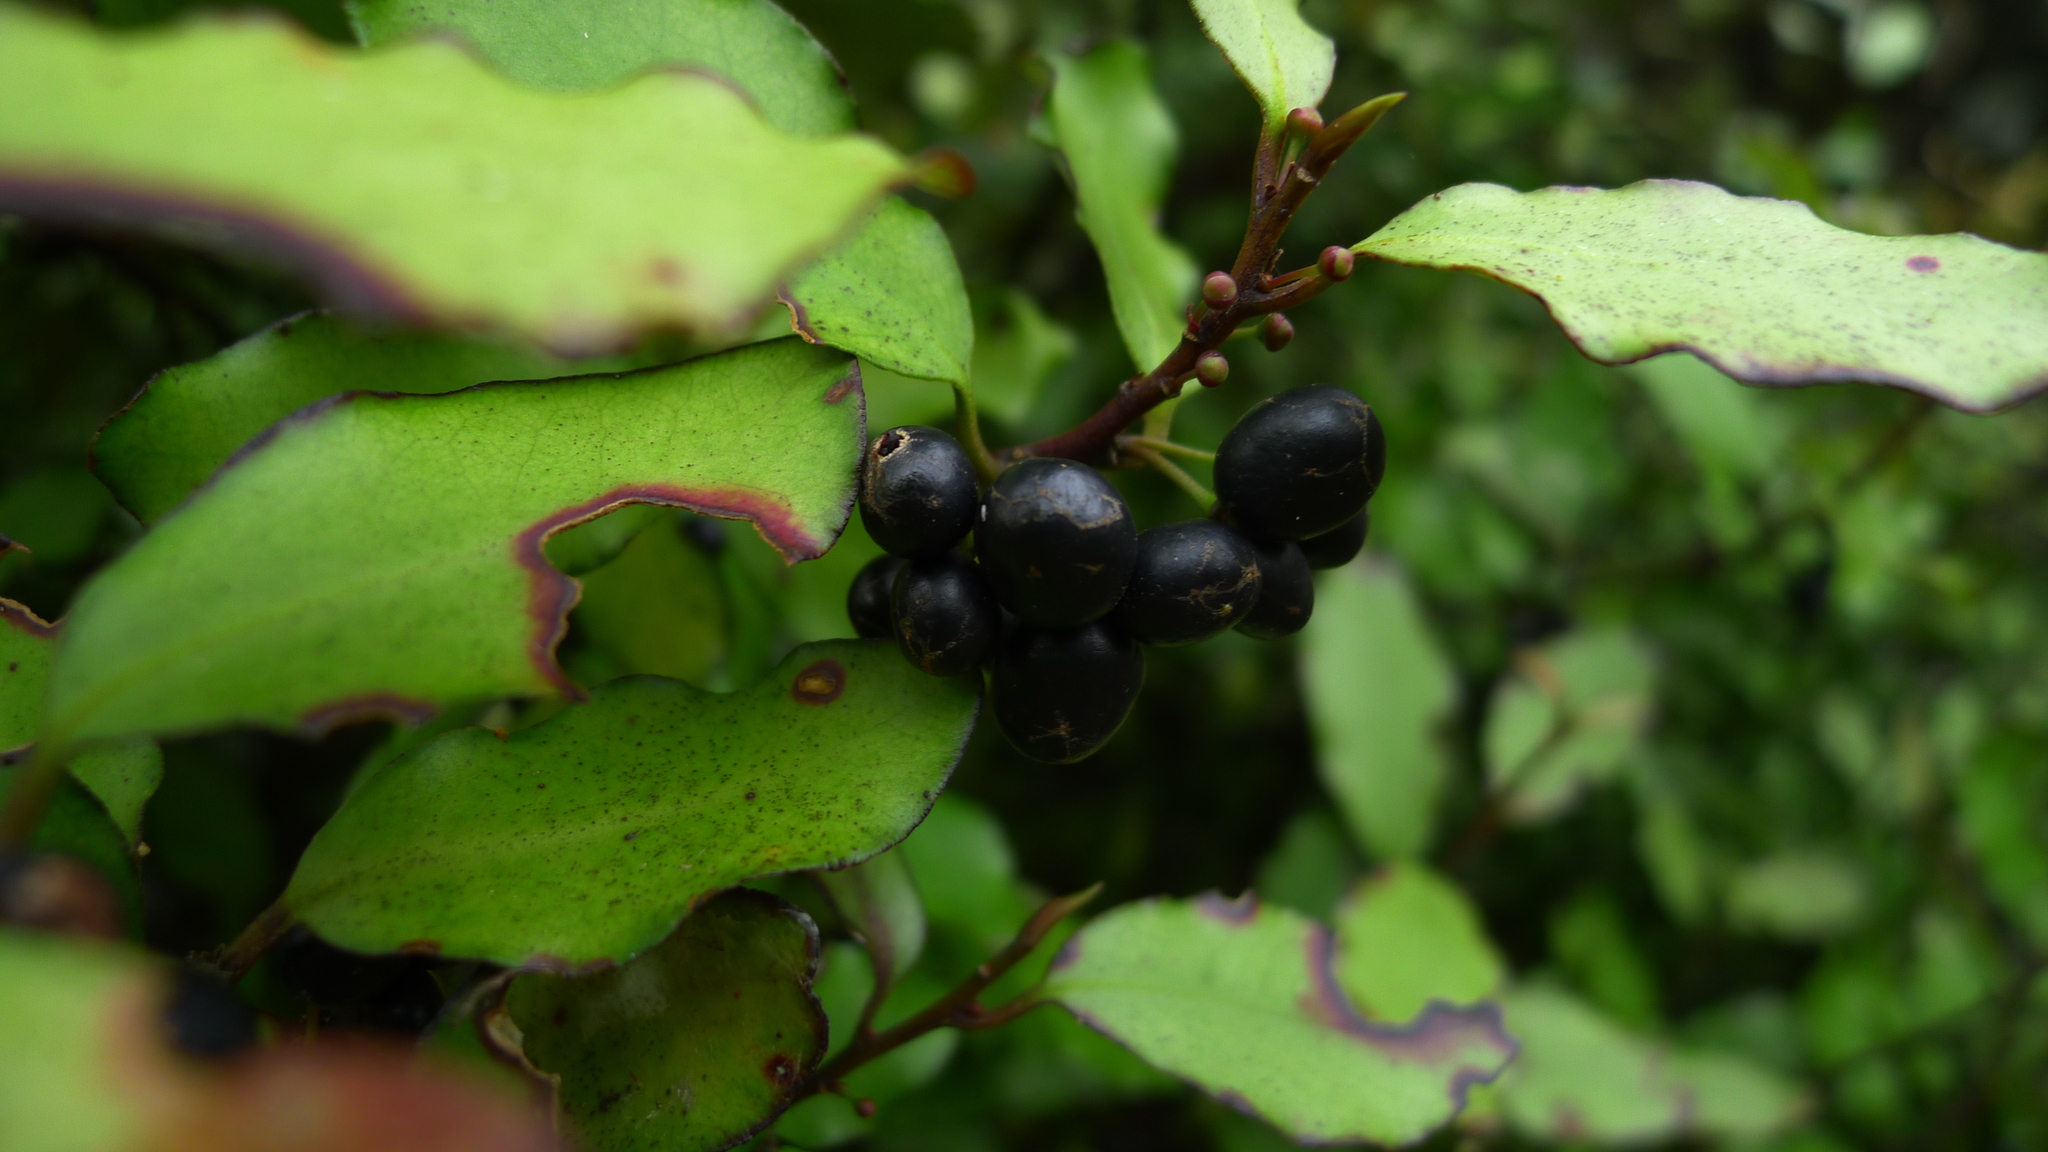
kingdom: Plantae
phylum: Tracheophyta
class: Magnoliopsida
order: Canellales
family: Winteraceae
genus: Pseudowintera
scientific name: Pseudowintera colorata
